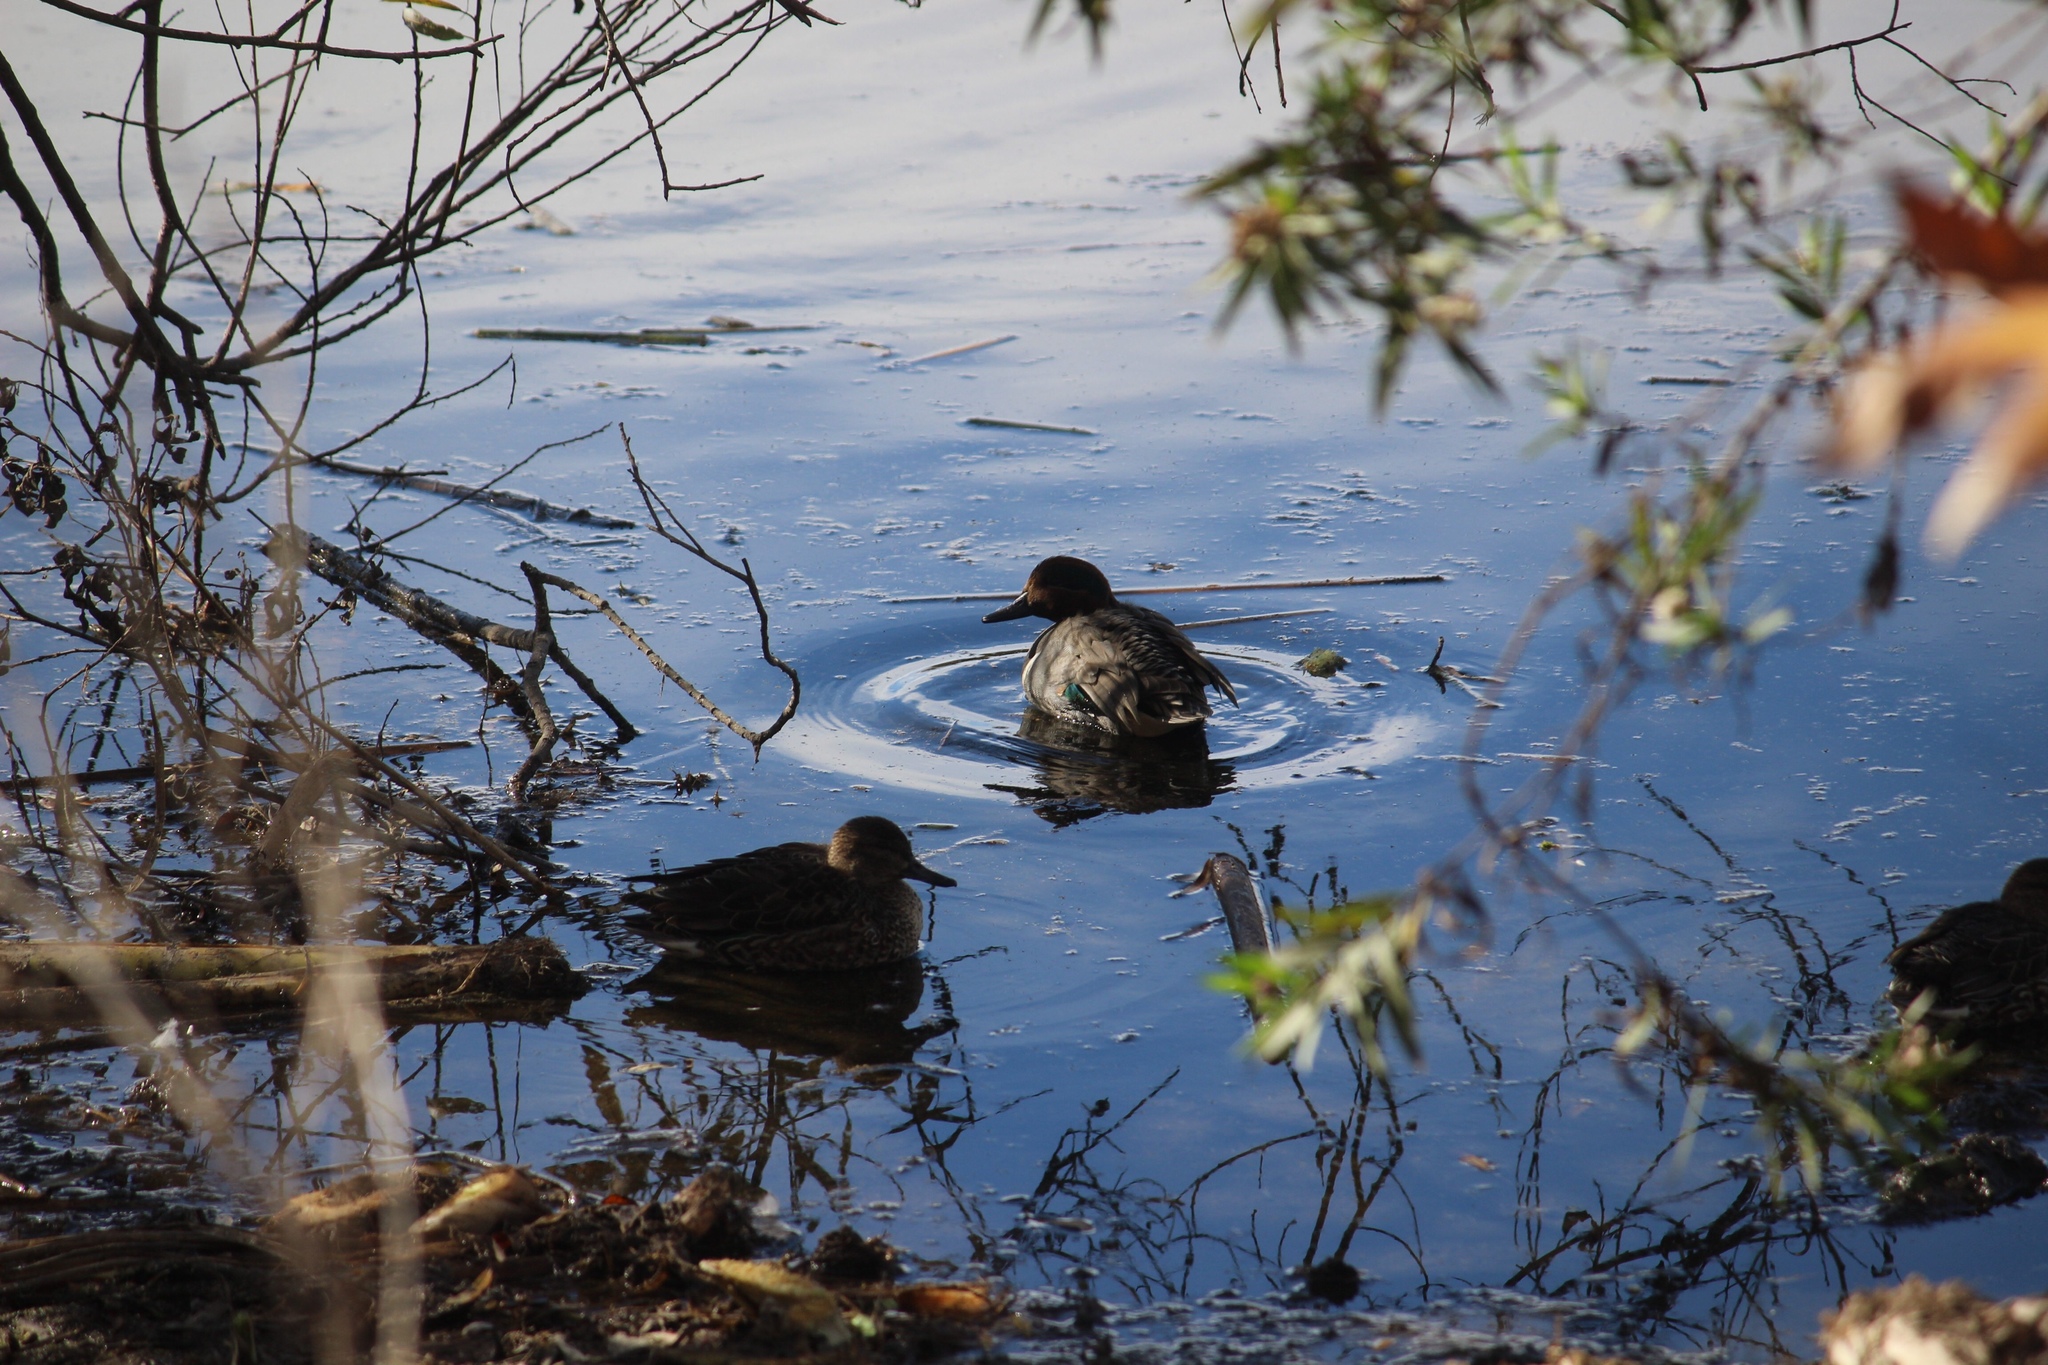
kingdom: Animalia
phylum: Chordata
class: Aves
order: Anseriformes
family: Anatidae
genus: Anas
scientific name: Anas carolinensis
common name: Green-winged teal
